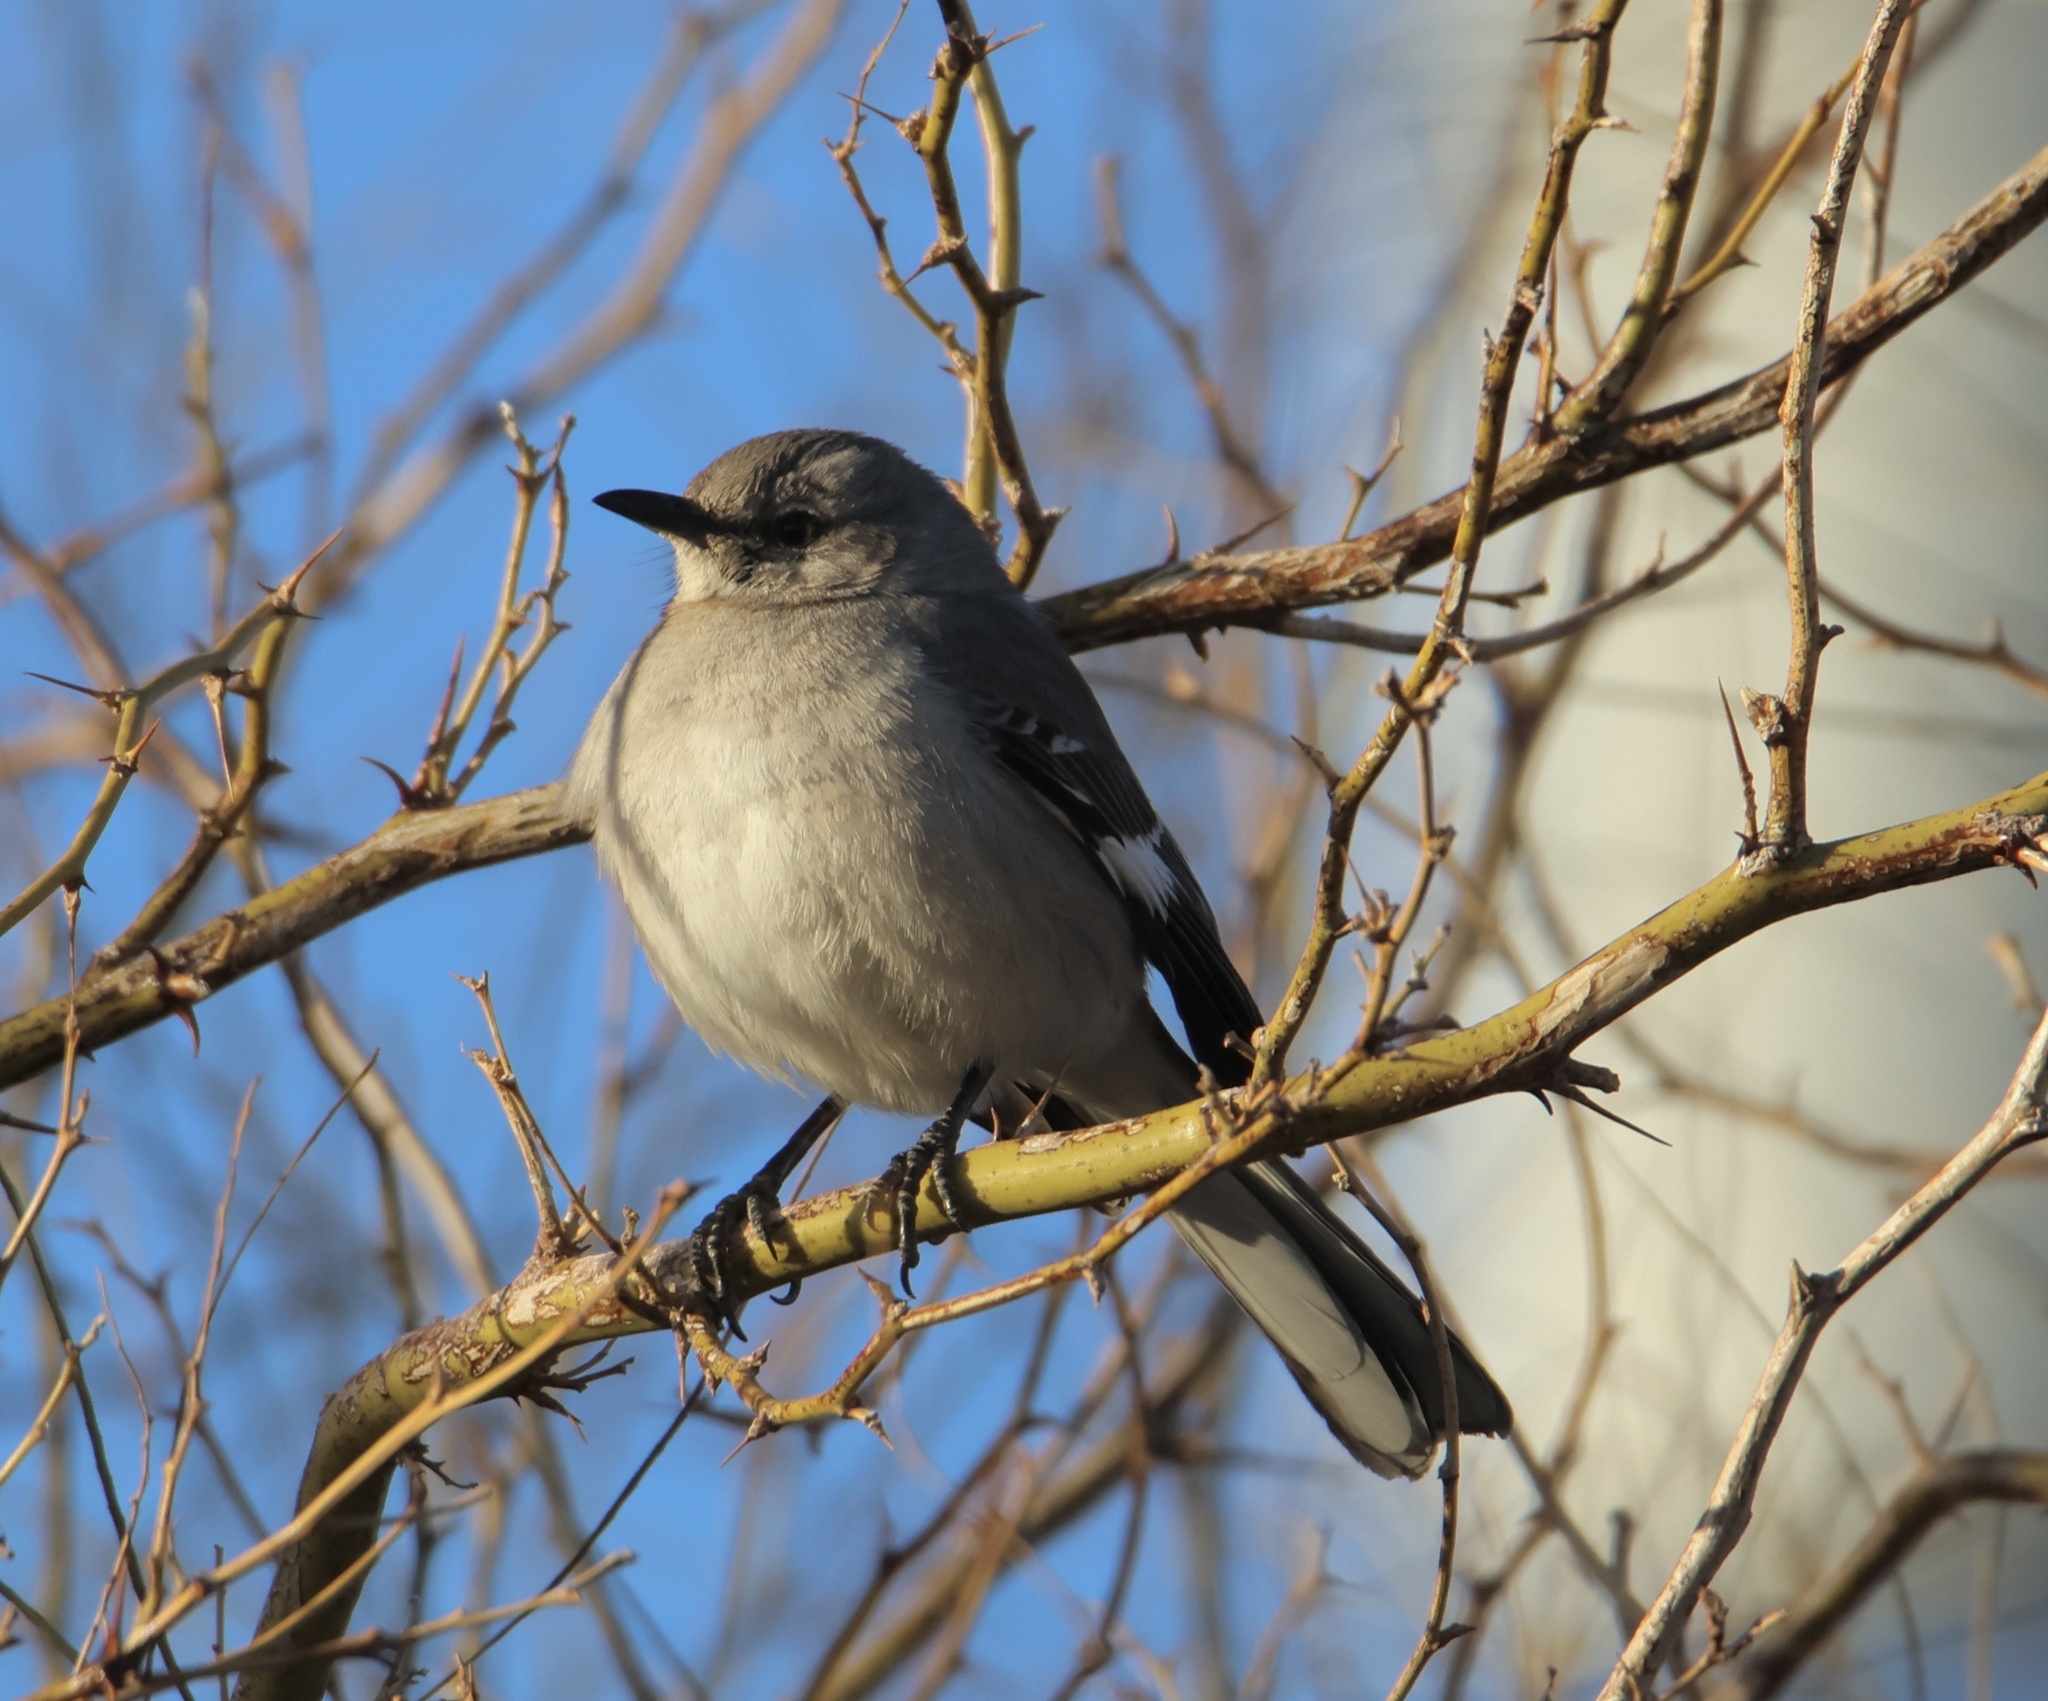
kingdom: Animalia
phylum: Chordata
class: Aves
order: Passeriformes
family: Mimidae
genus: Mimus
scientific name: Mimus polyglottos
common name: Northern mockingbird
